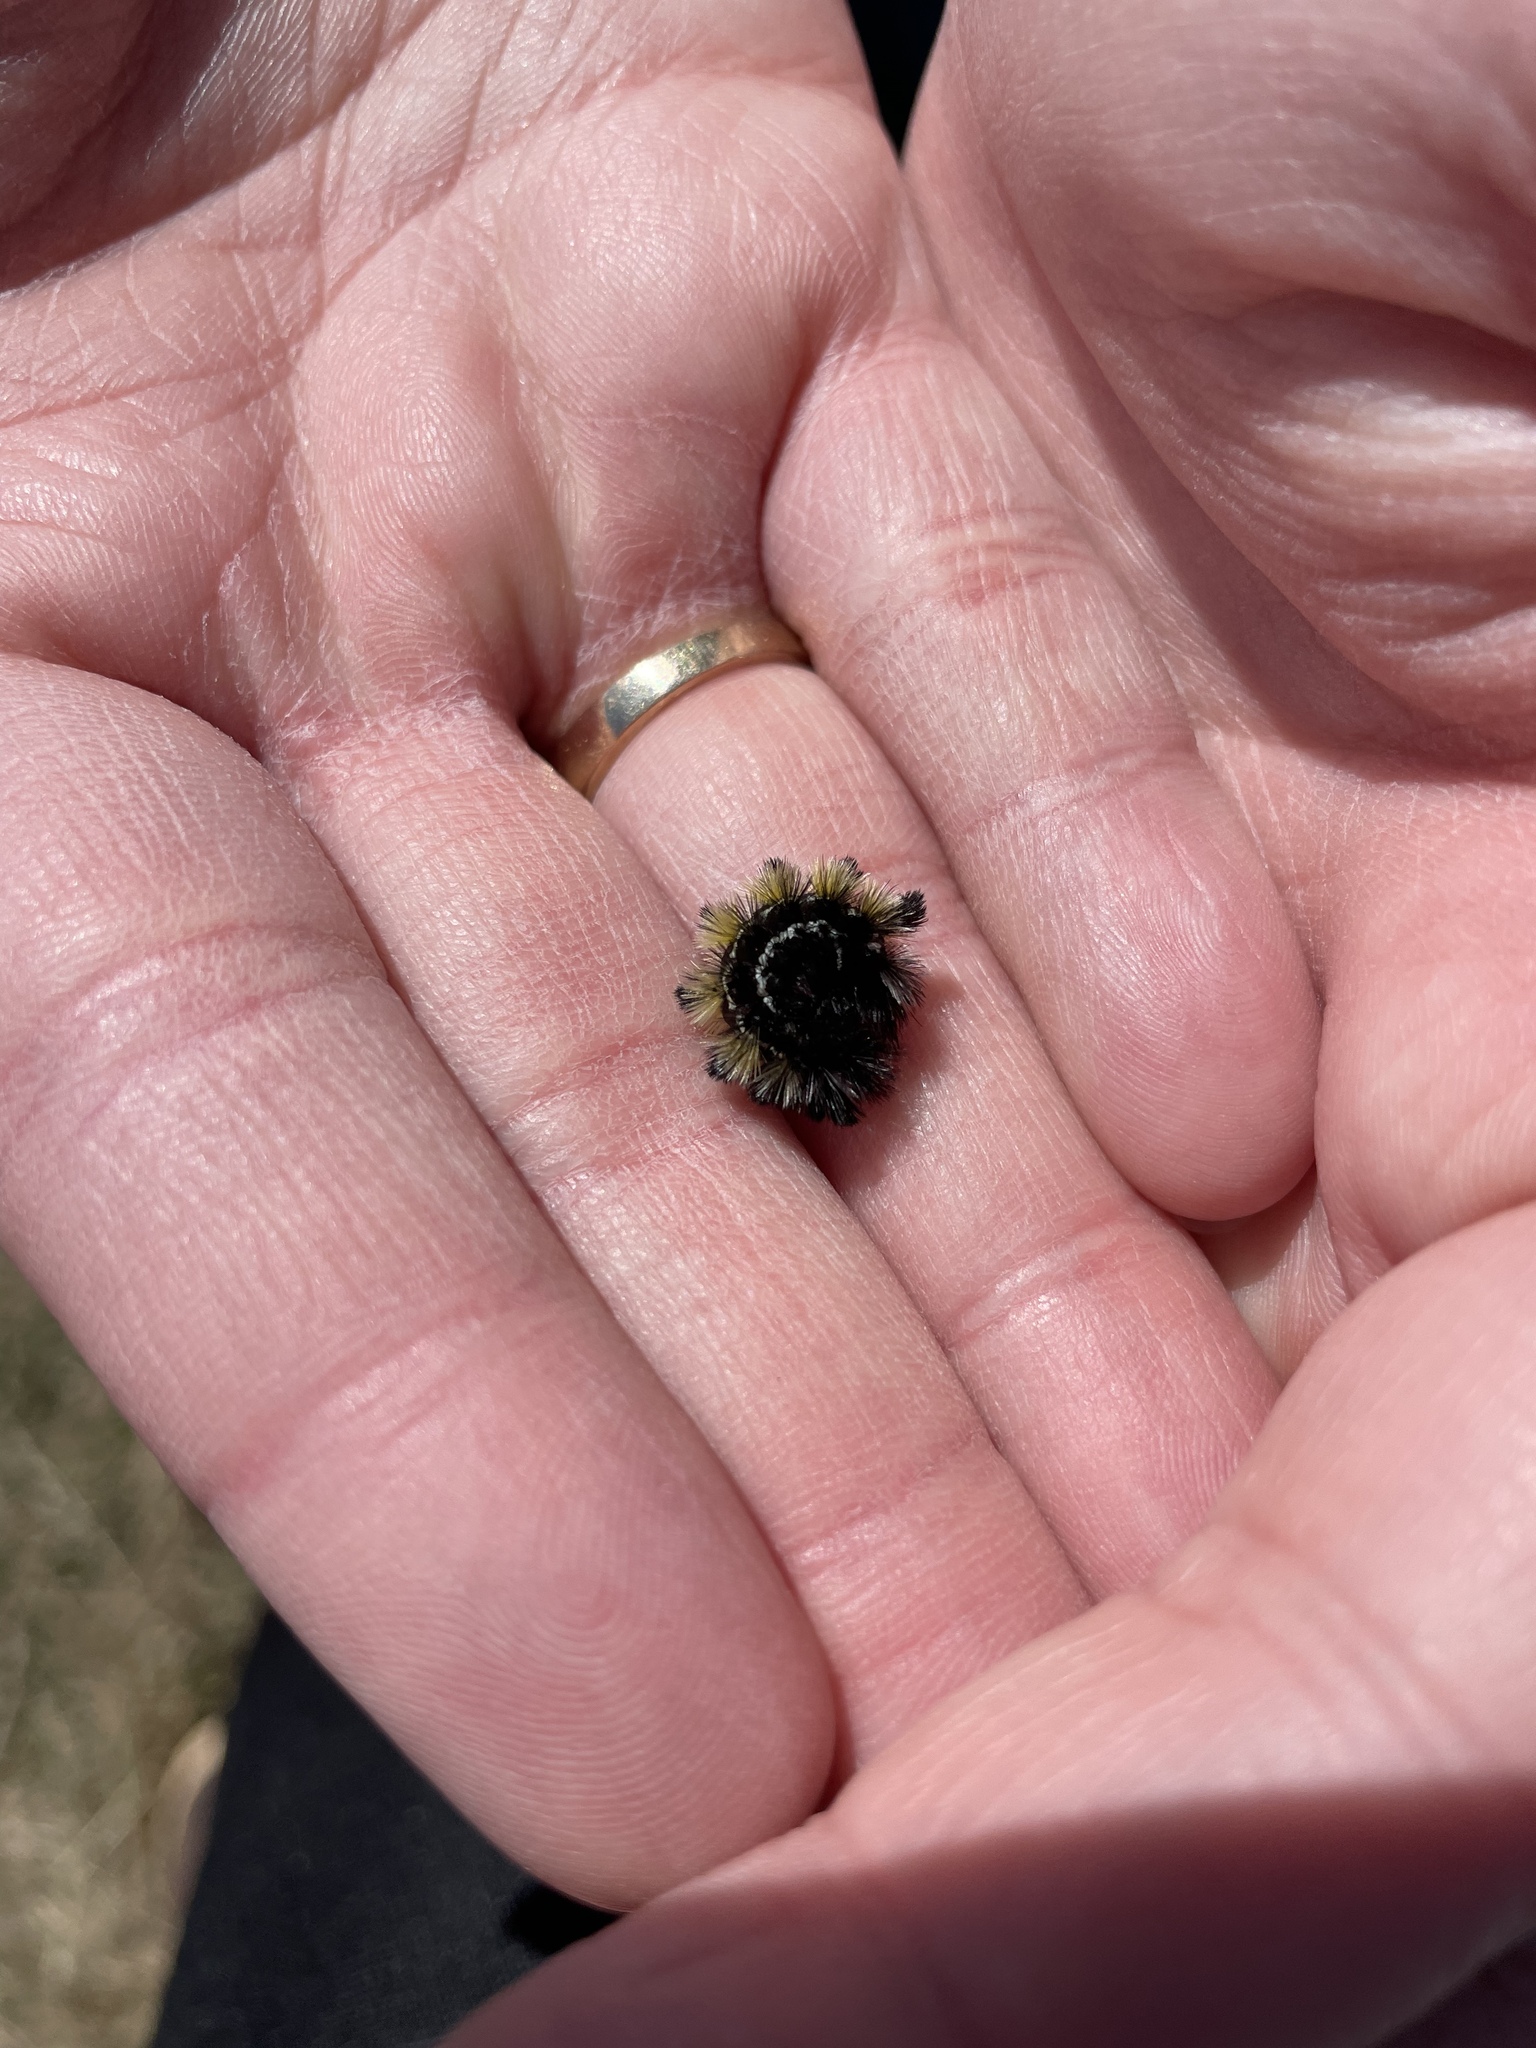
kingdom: Animalia
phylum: Arthropoda
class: Insecta
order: Lepidoptera
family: Erebidae
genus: Ctenucha
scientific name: Ctenucha virginica
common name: Virginia ctenucha moth
